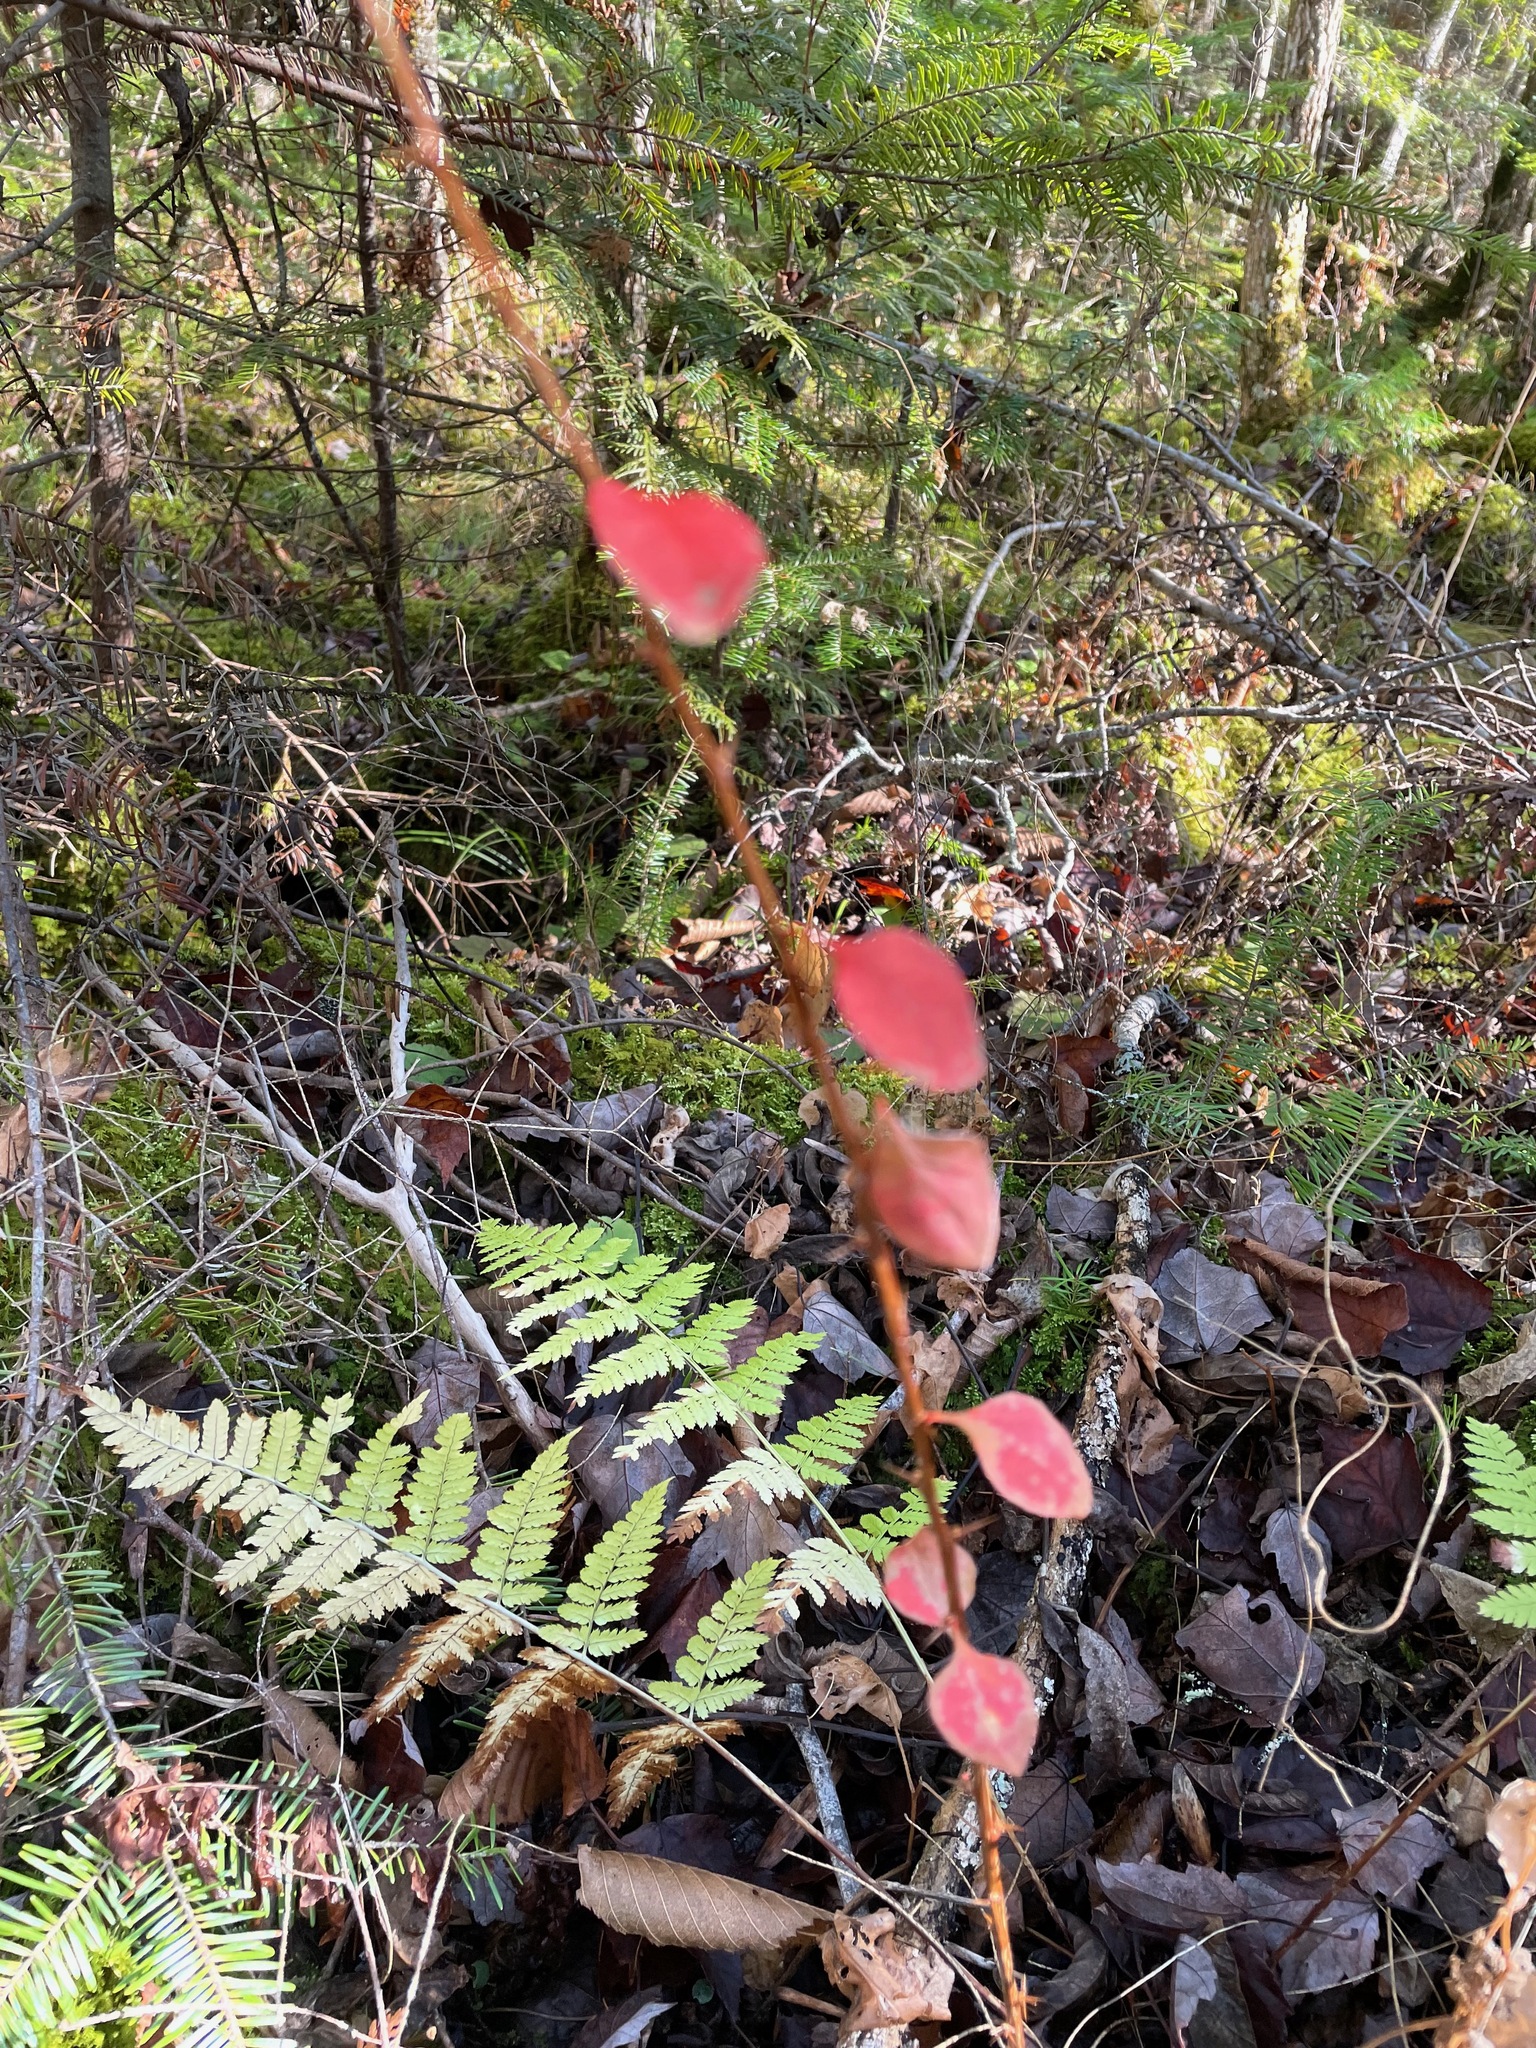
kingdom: Plantae
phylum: Tracheophyta
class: Magnoliopsida
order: Ranunculales
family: Berberidaceae
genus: Berberis
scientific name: Berberis thunbergii
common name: Japanese barberry
